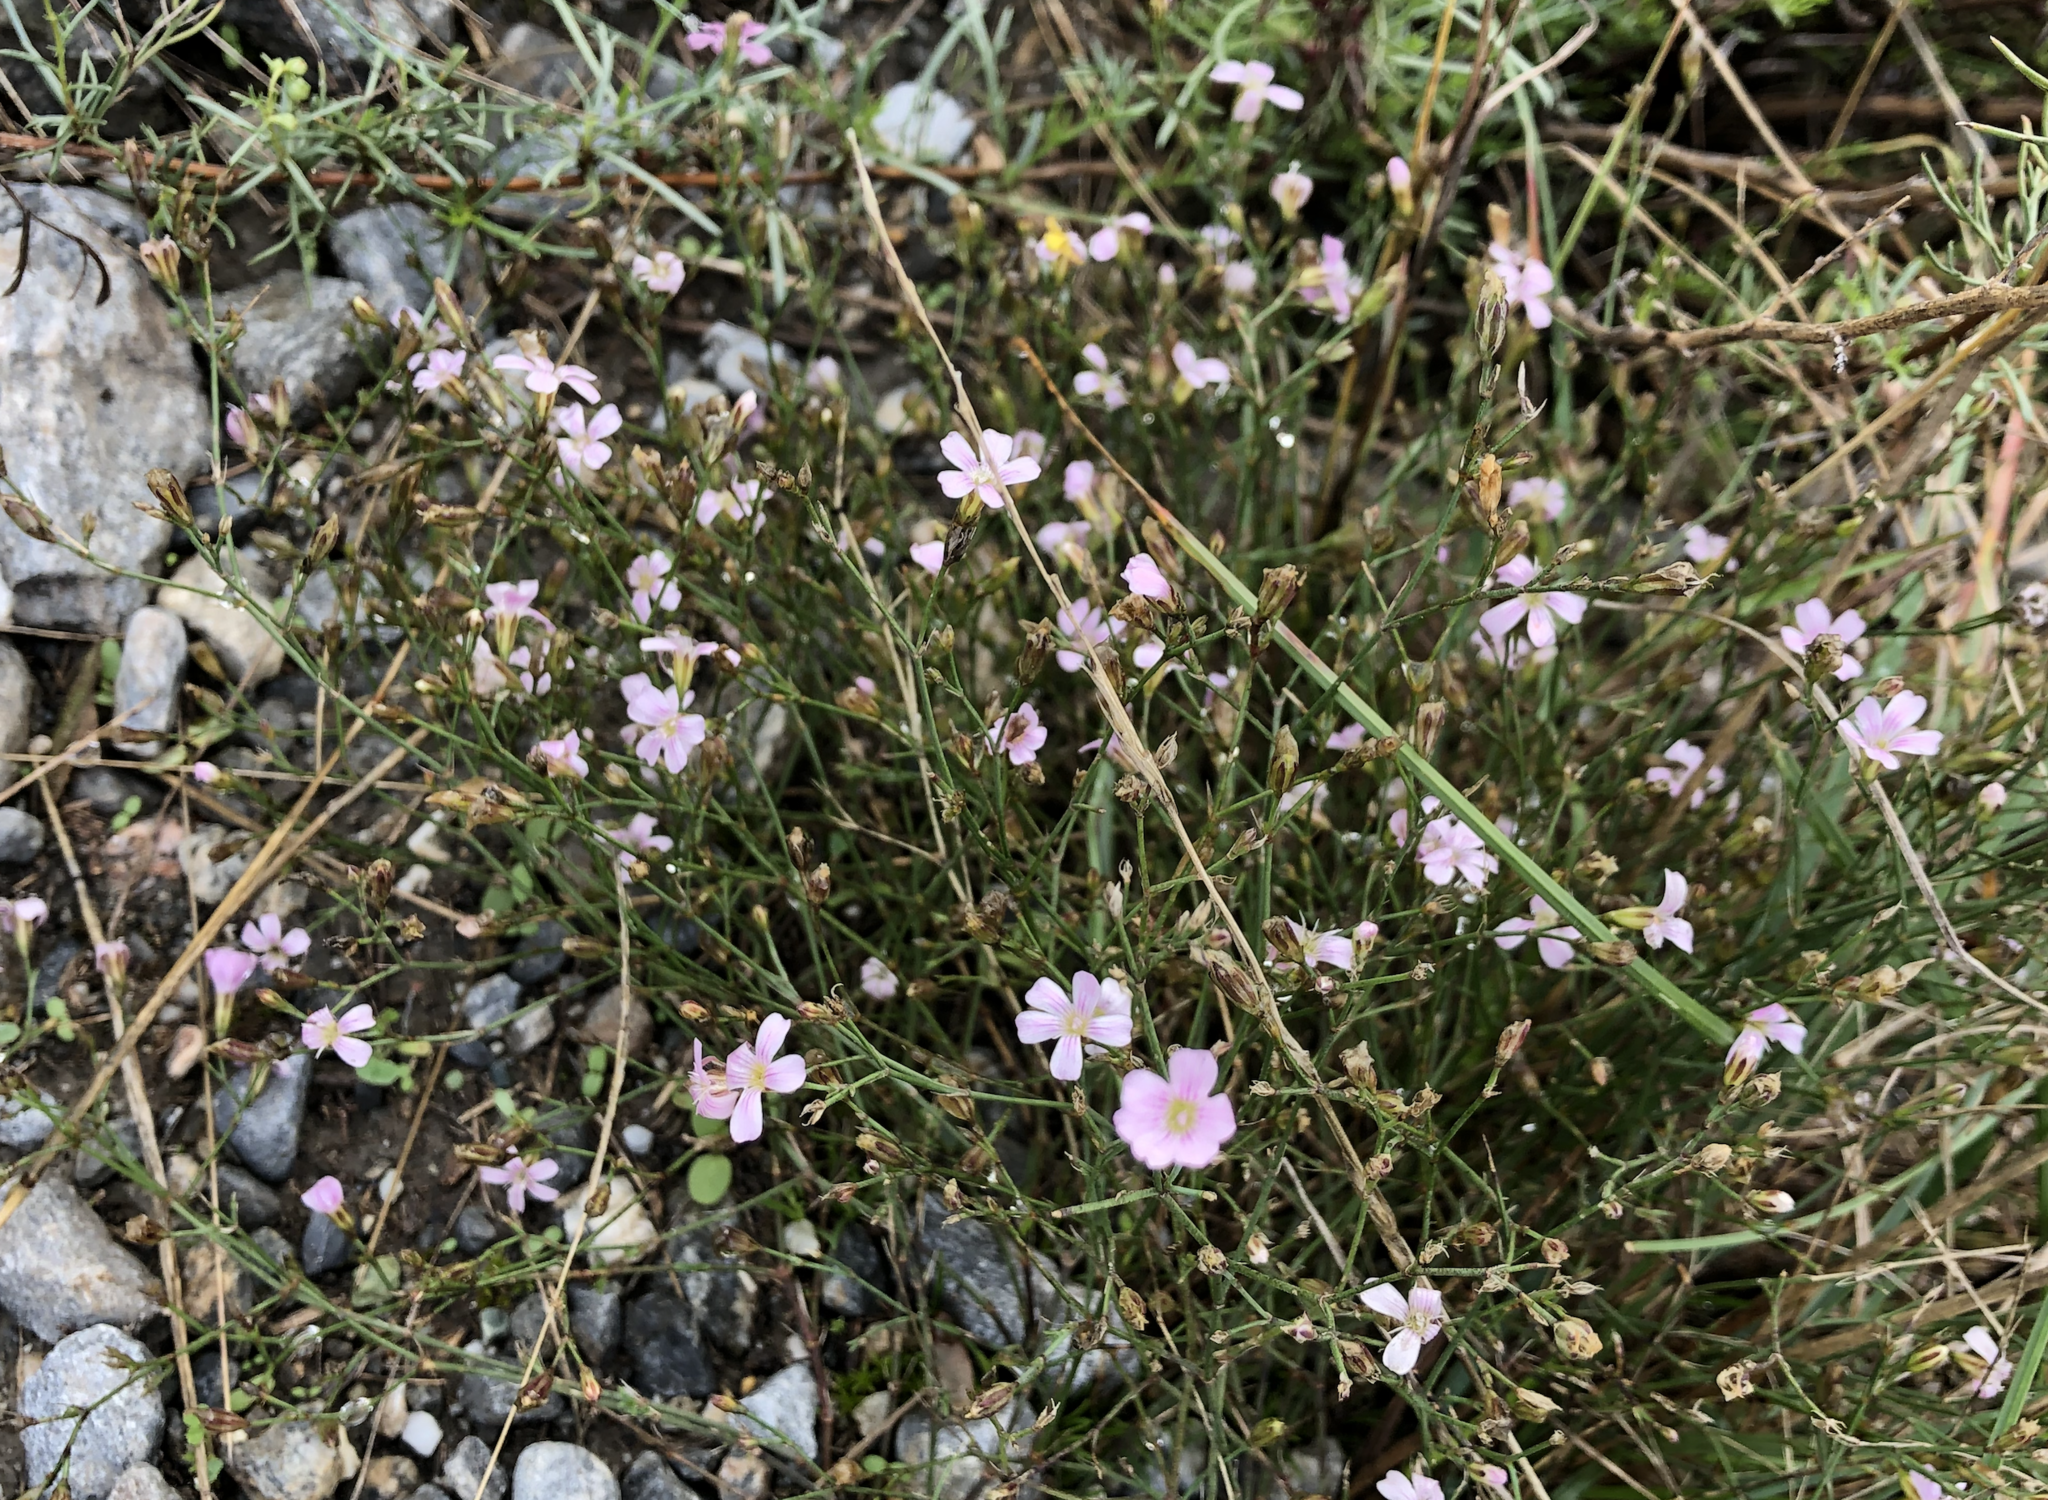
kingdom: Plantae
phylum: Tracheophyta
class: Magnoliopsida
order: Caryophyllales
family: Caryophyllaceae
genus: Petrorhagia
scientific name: Petrorhagia saxifraga
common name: Tunicflower
